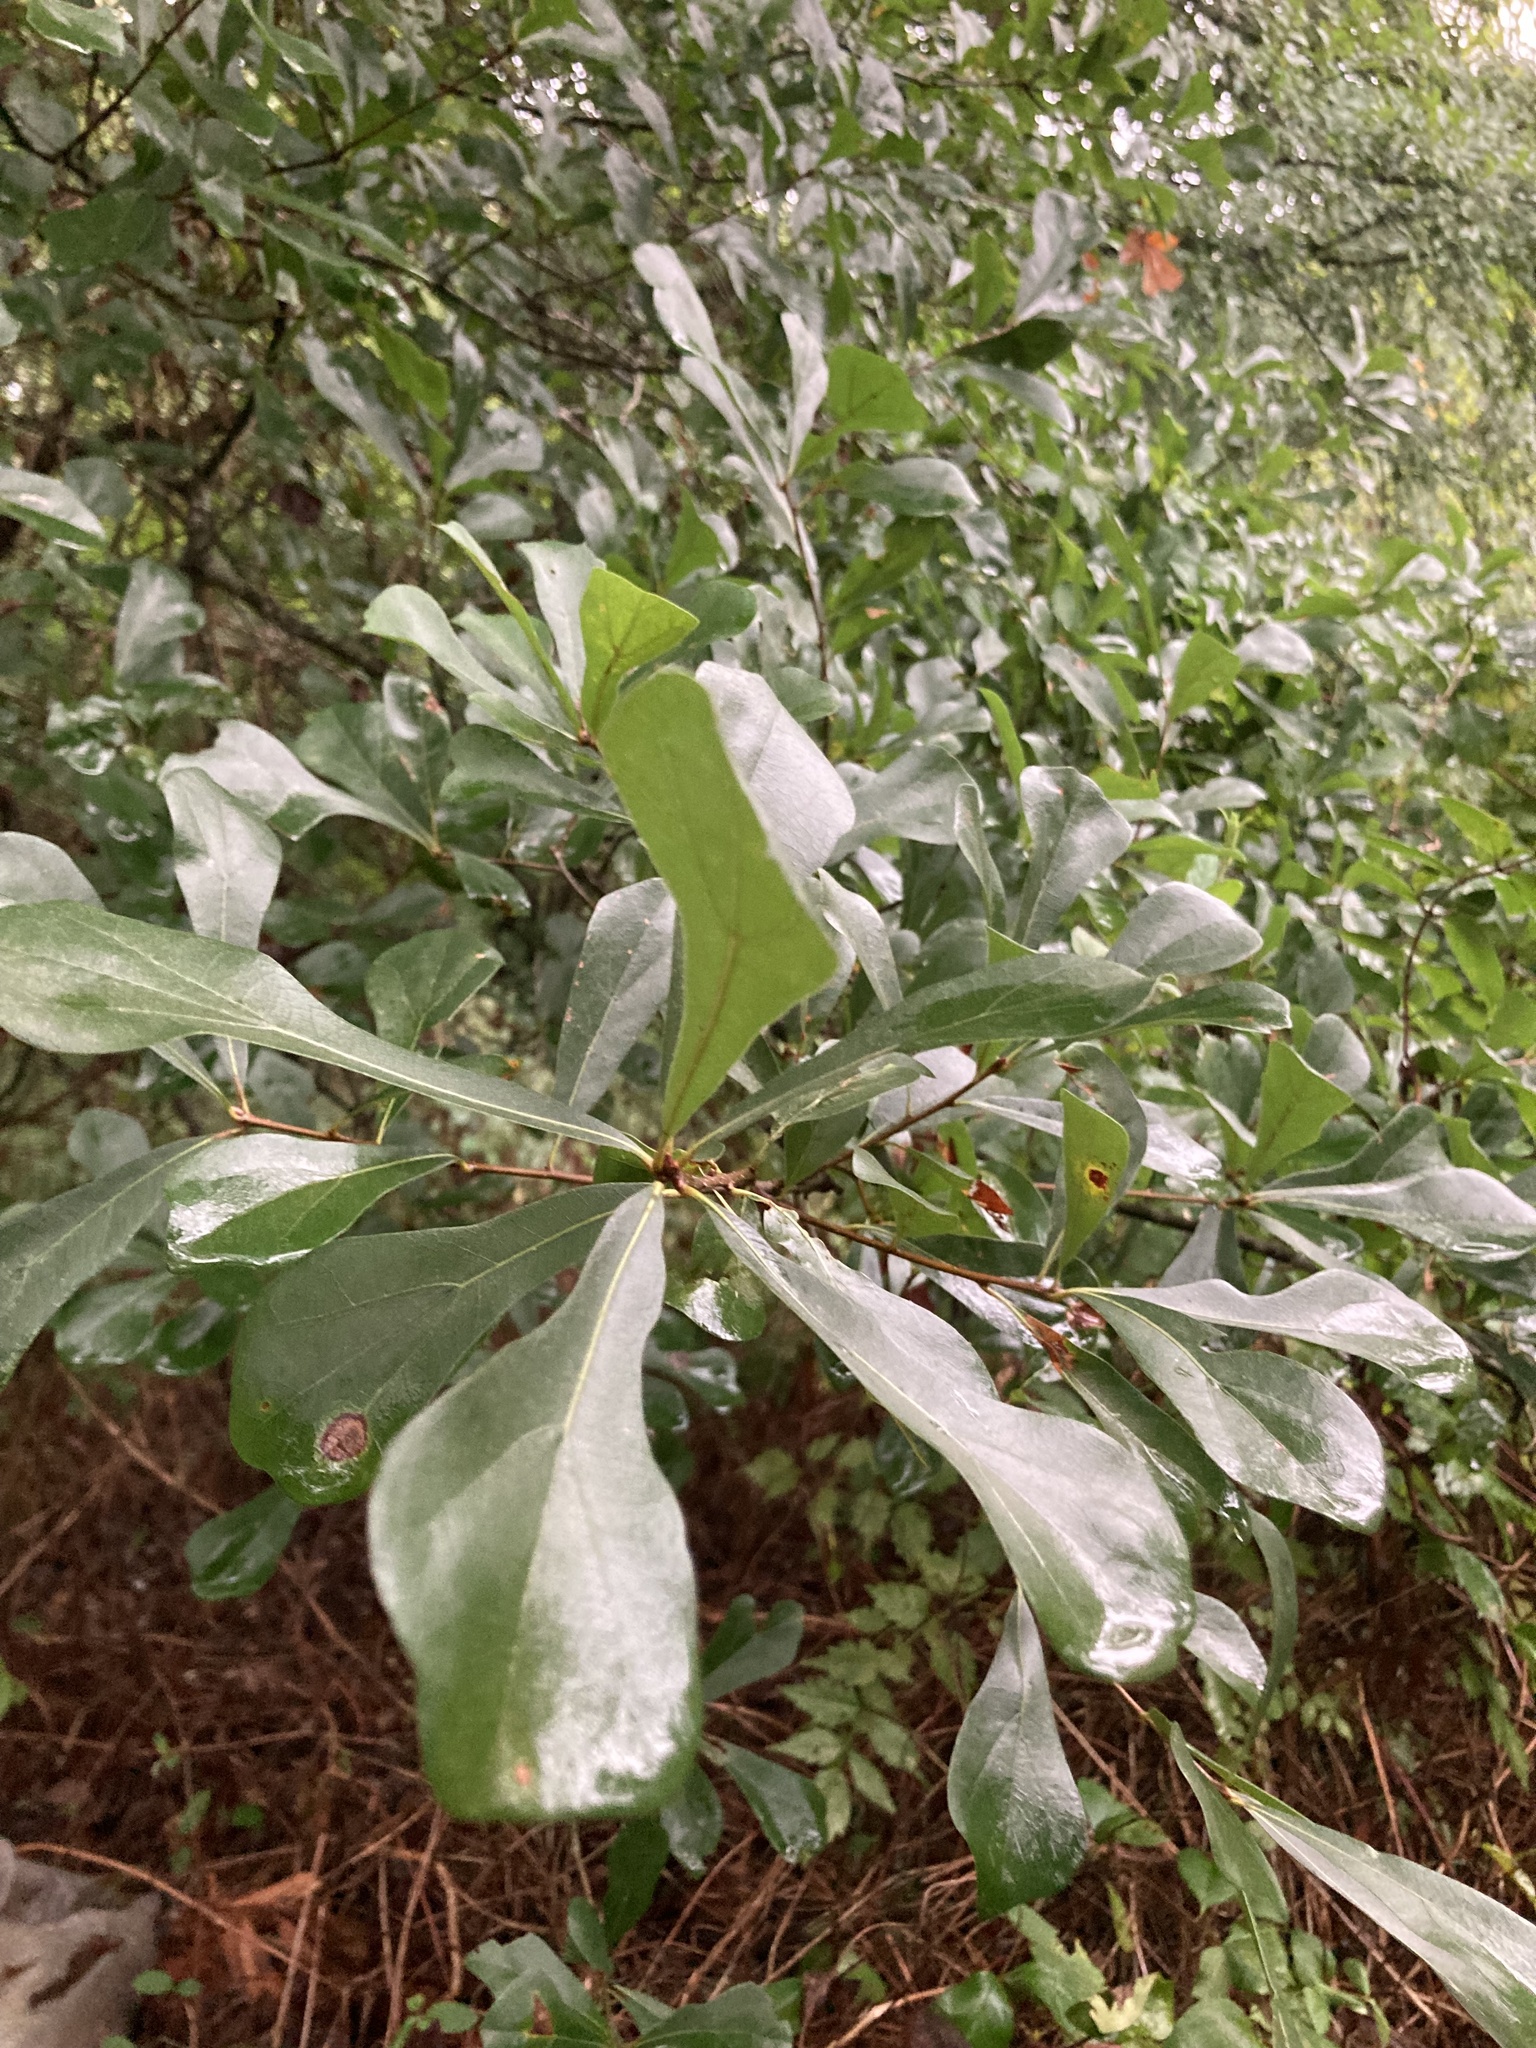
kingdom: Plantae
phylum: Tracheophyta
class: Magnoliopsida
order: Fagales
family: Fagaceae
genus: Quercus
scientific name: Quercus nigra
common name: Water oak
